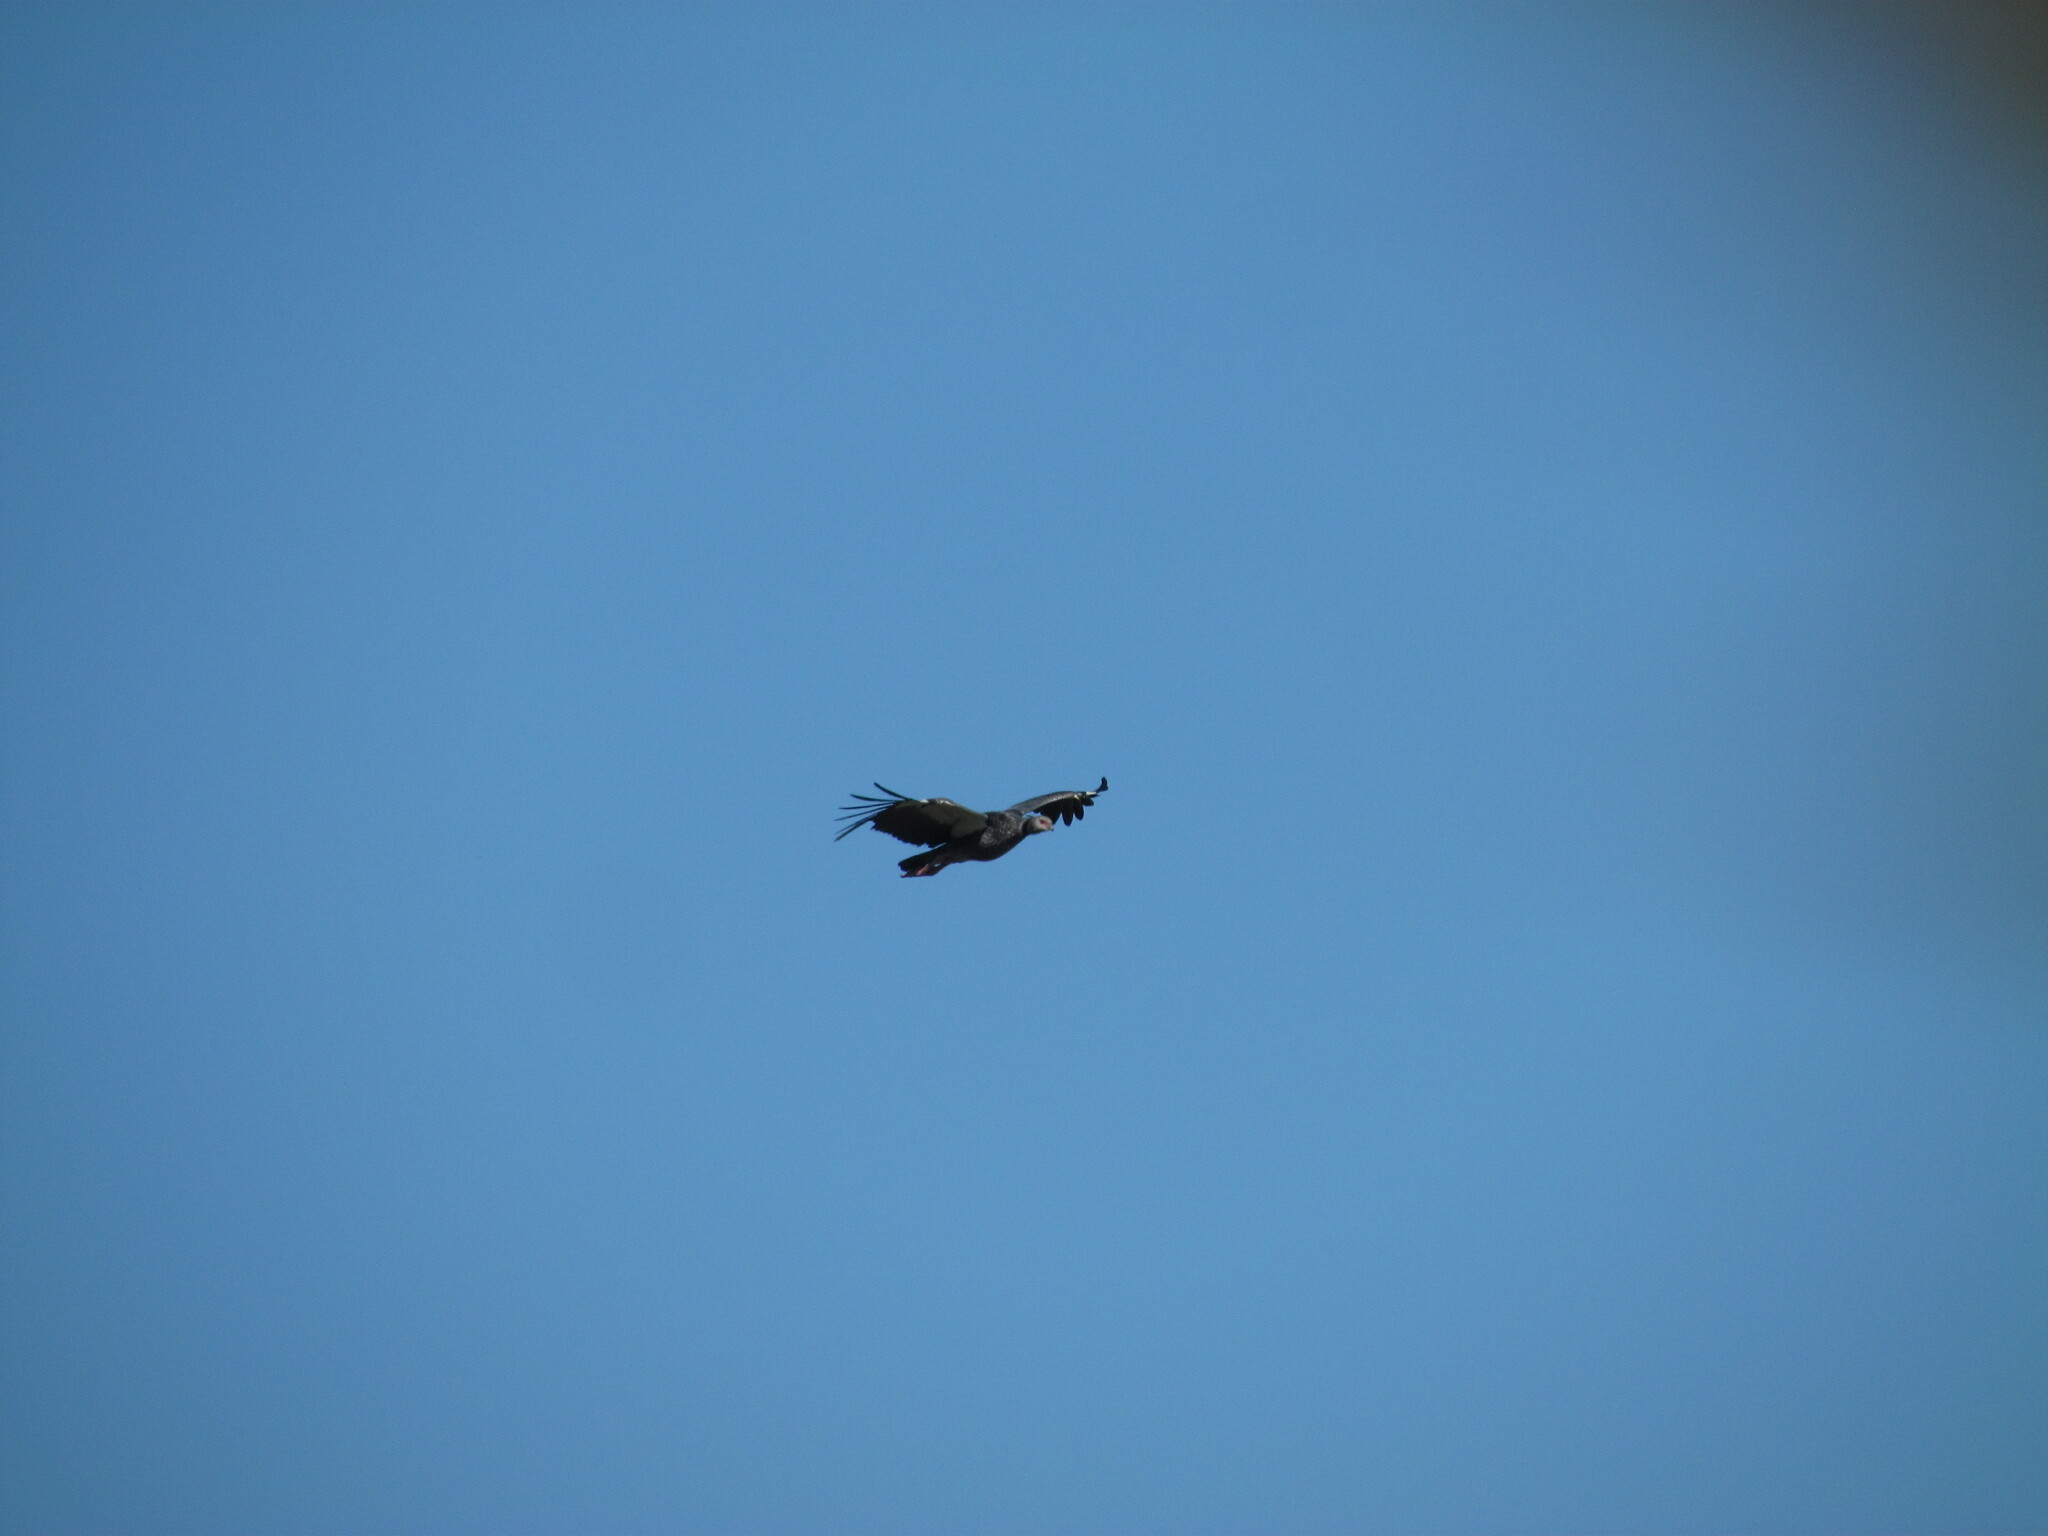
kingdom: Animalia
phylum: Chordata
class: Aves
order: Anseriformes
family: Anhimidae
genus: Chauna
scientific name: Chauna torquata
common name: Southern screamer
